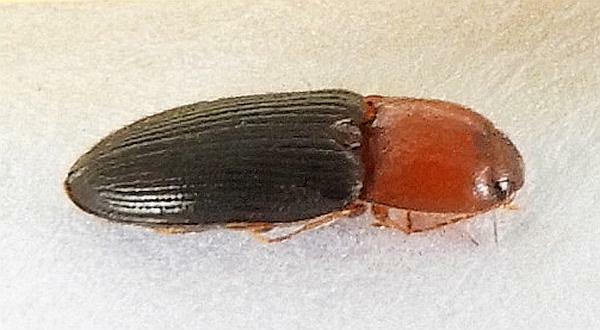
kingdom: Animalia
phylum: Arthropoda
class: Insecta
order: Coleoptera
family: Elateridae
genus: Esthesopus
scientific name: Esthesopus atripennis
